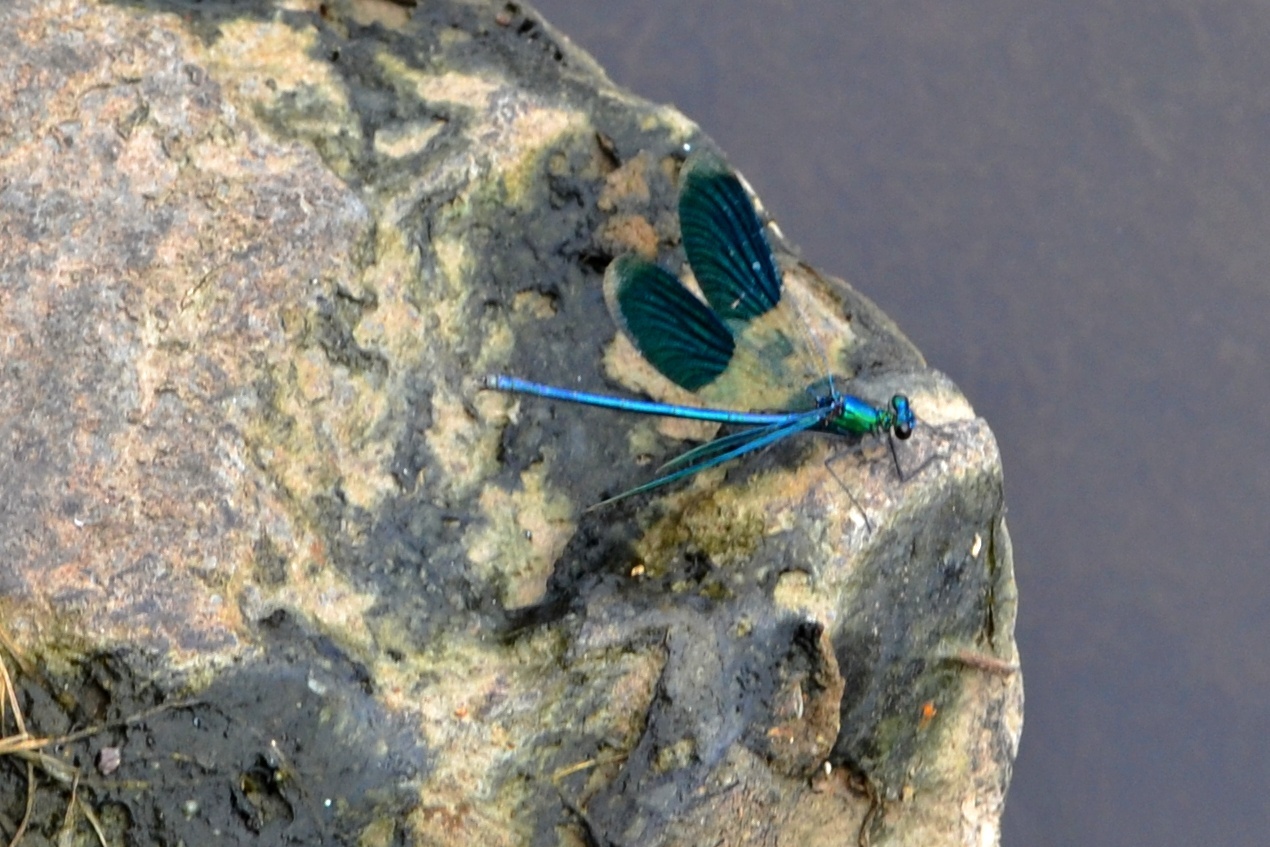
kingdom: Animalia
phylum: Arthropoda
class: Insecta
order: Odonata
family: Calopterygidae
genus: Calopteryx
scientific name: Calopteryx splendens
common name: Banded demoiselle
